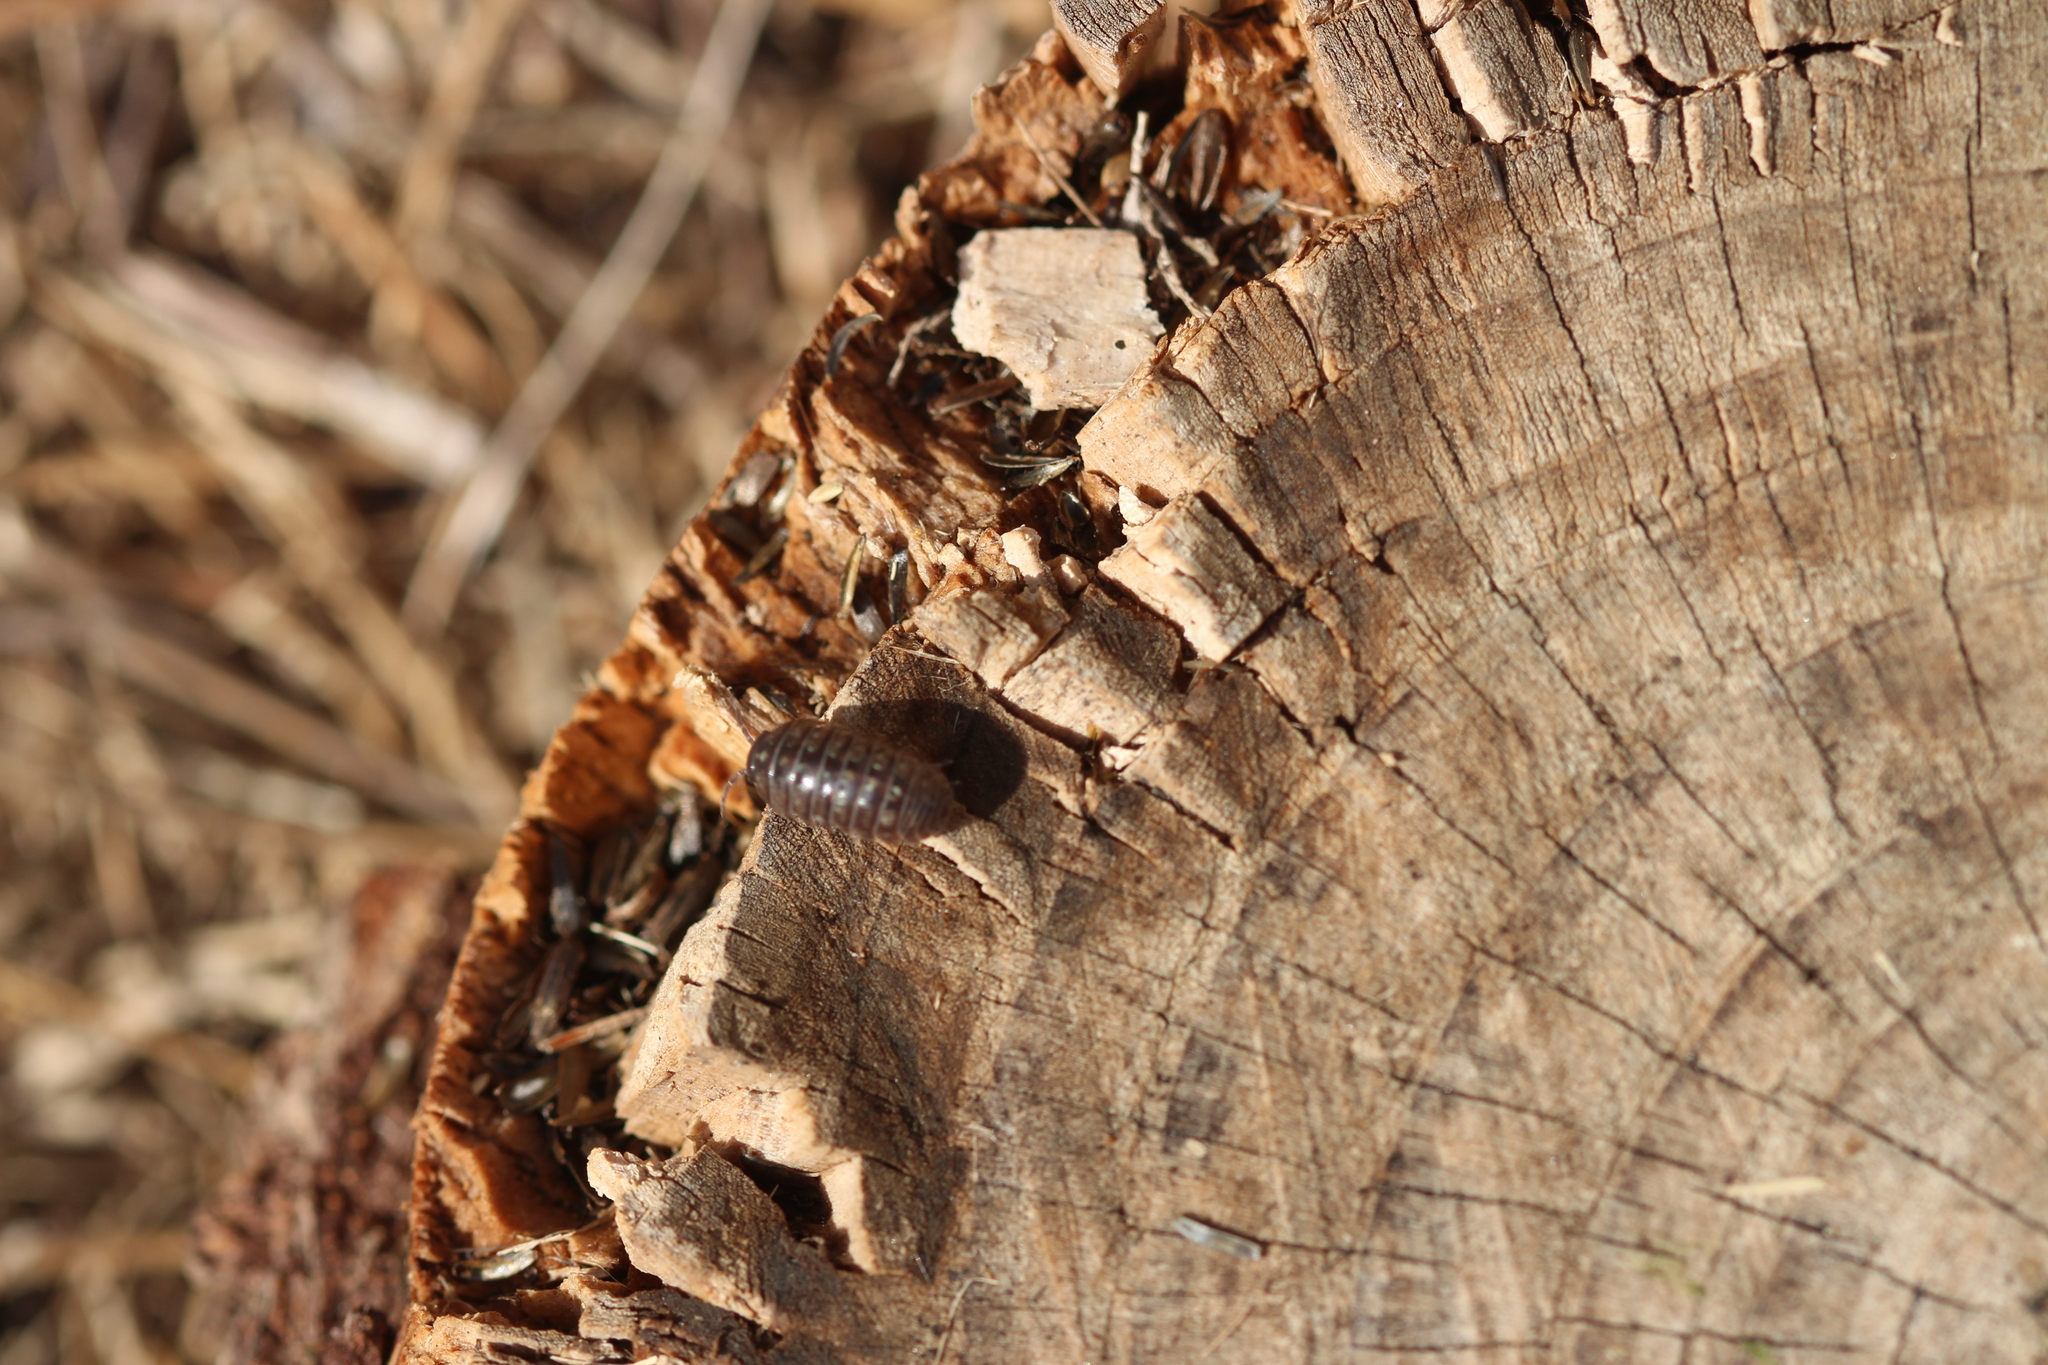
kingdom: Animalia
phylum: Arthropoda
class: Malacostraca
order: Isopoda
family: Armadillidiidae
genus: Armadillidium
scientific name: Armadillidium vulgare
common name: Common pill woodlouse
